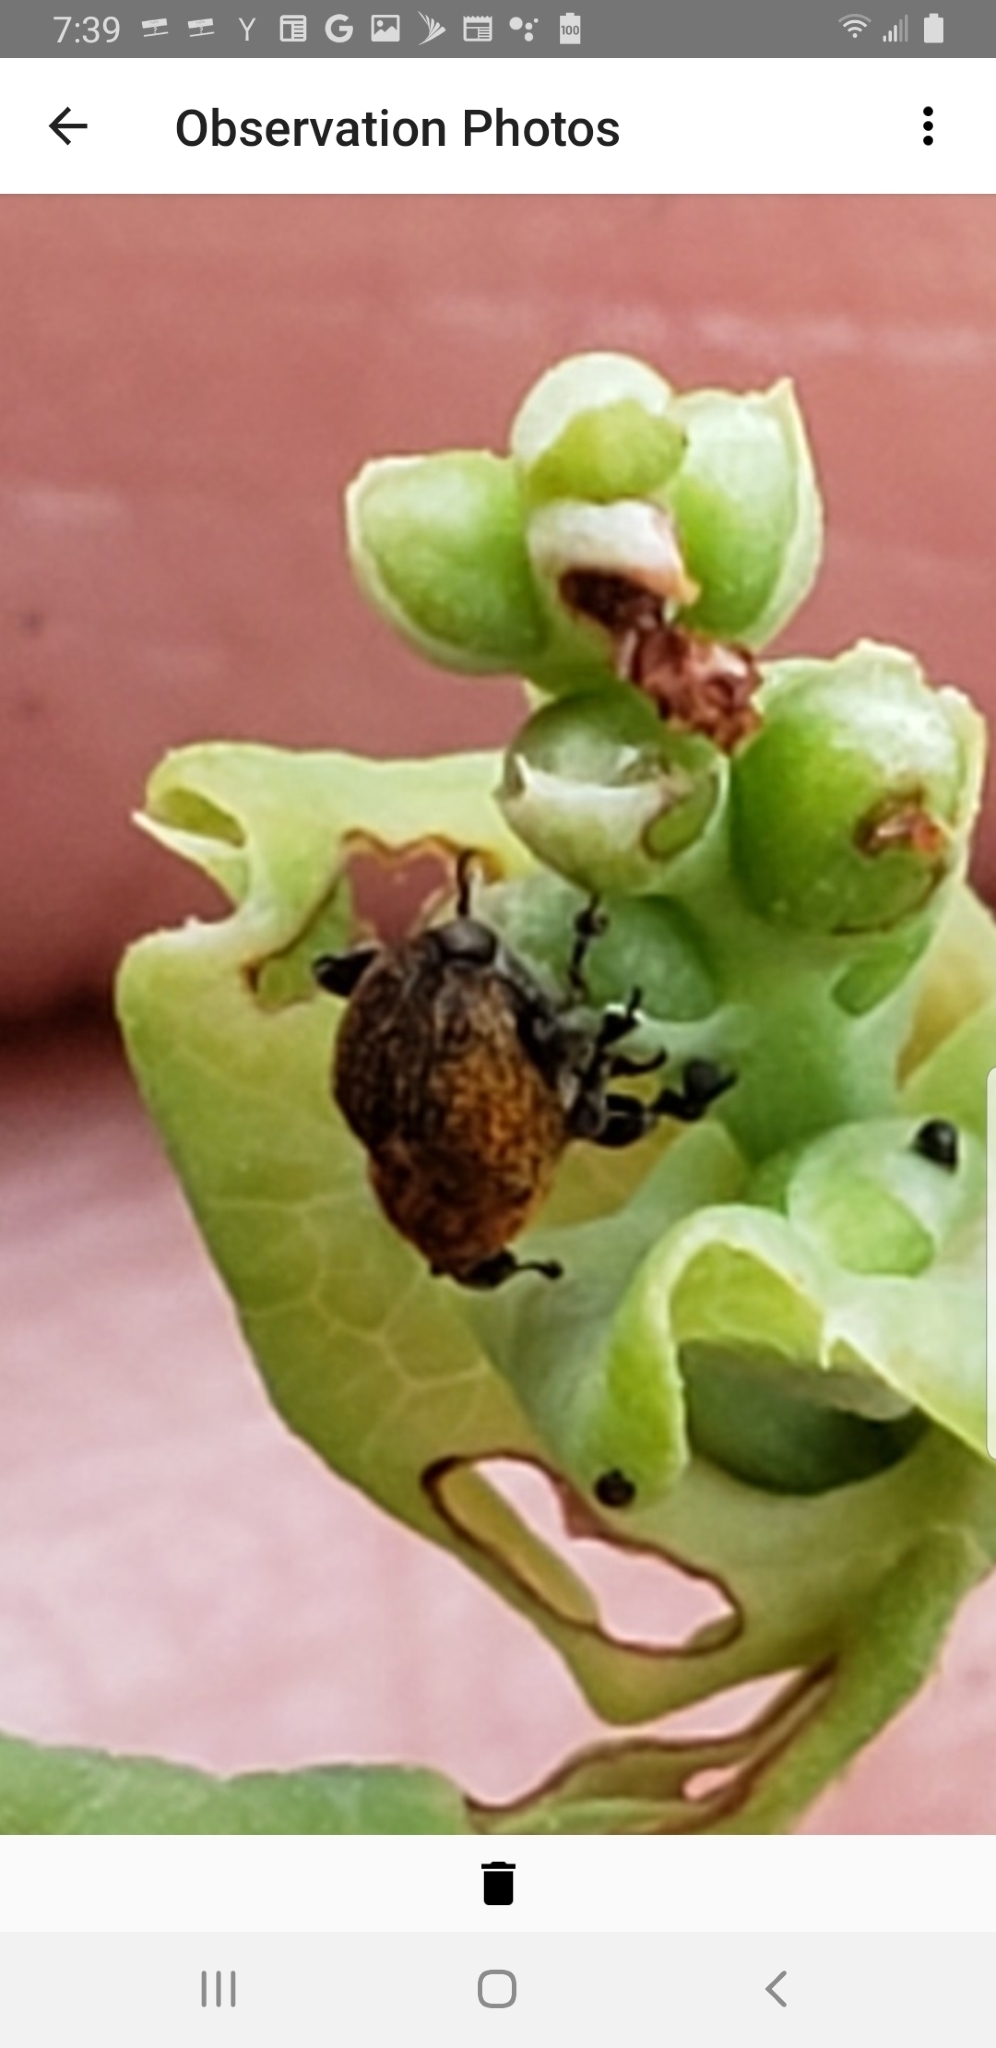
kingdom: Animalia
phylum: Arthropoda
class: Insecta
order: Coleoptera
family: Curculionidae
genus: Rhinoncomimus
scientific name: Rhinoncomimus latipes
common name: Chinese weevil
